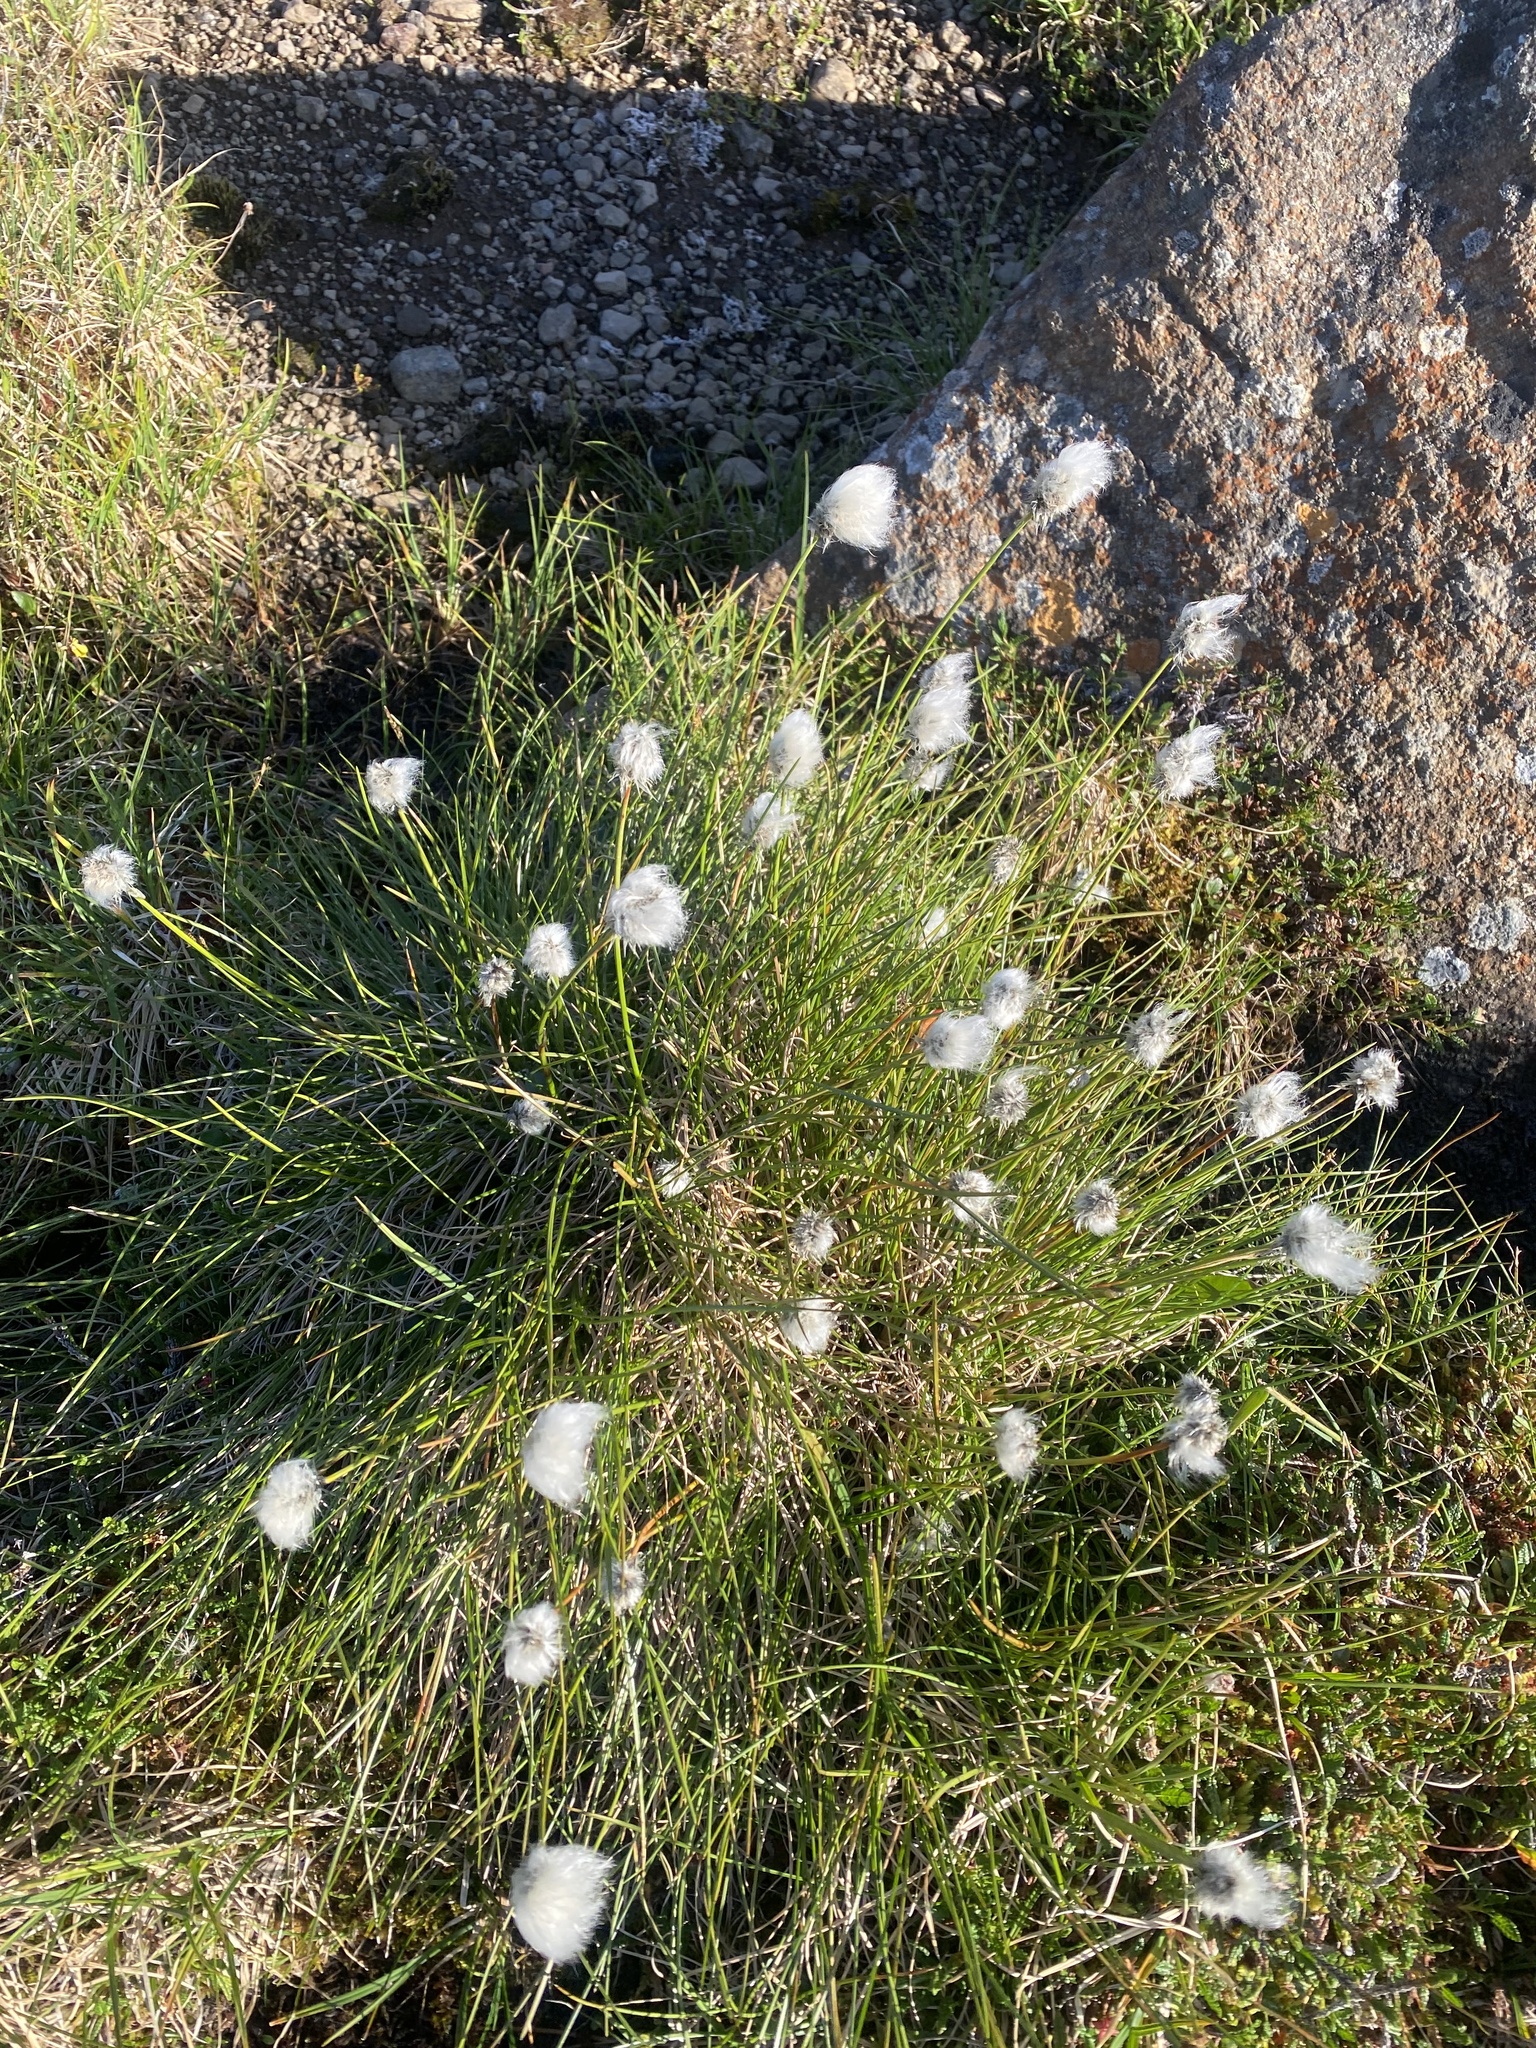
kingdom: Plantae
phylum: Tracheophyta
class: Liliopsida
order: Poales
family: Cyperaceae
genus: Eriophorum
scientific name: Eriophorum vaginatum
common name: Hare's-tail cottongrass
